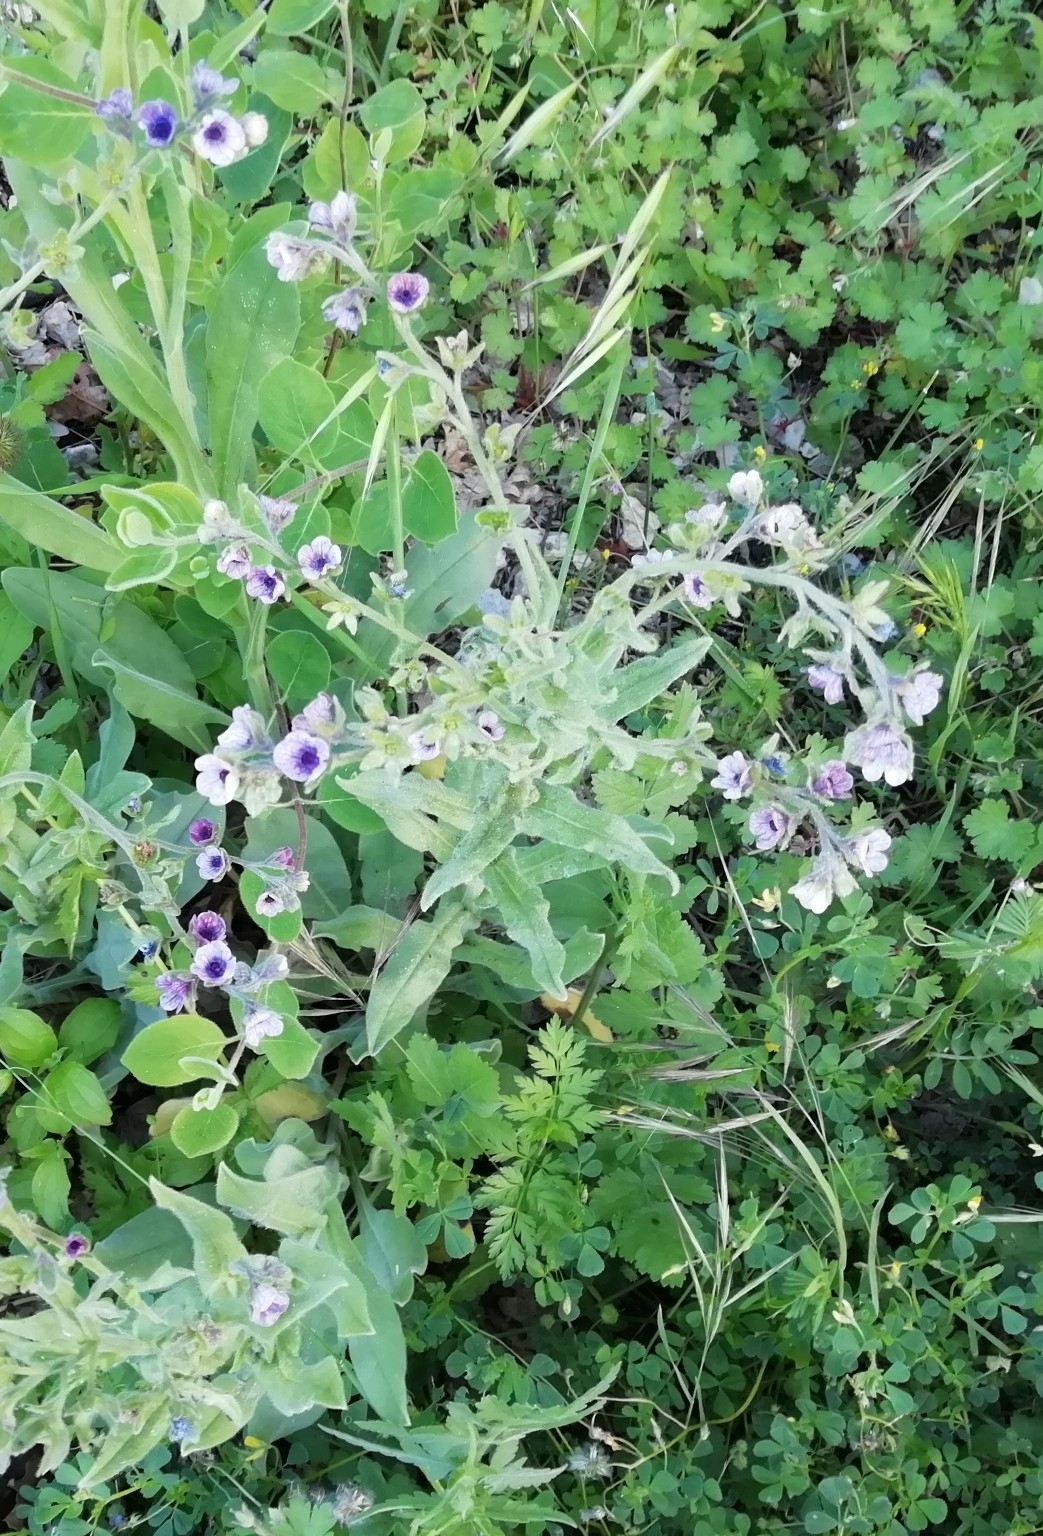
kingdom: Plantae
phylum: Tracheophyta
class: Magnoliopsida
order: Boraginales
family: Boraginaceae
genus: Cynoglossum
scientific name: Cynoglossum creticum
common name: Blue hound's tongue
